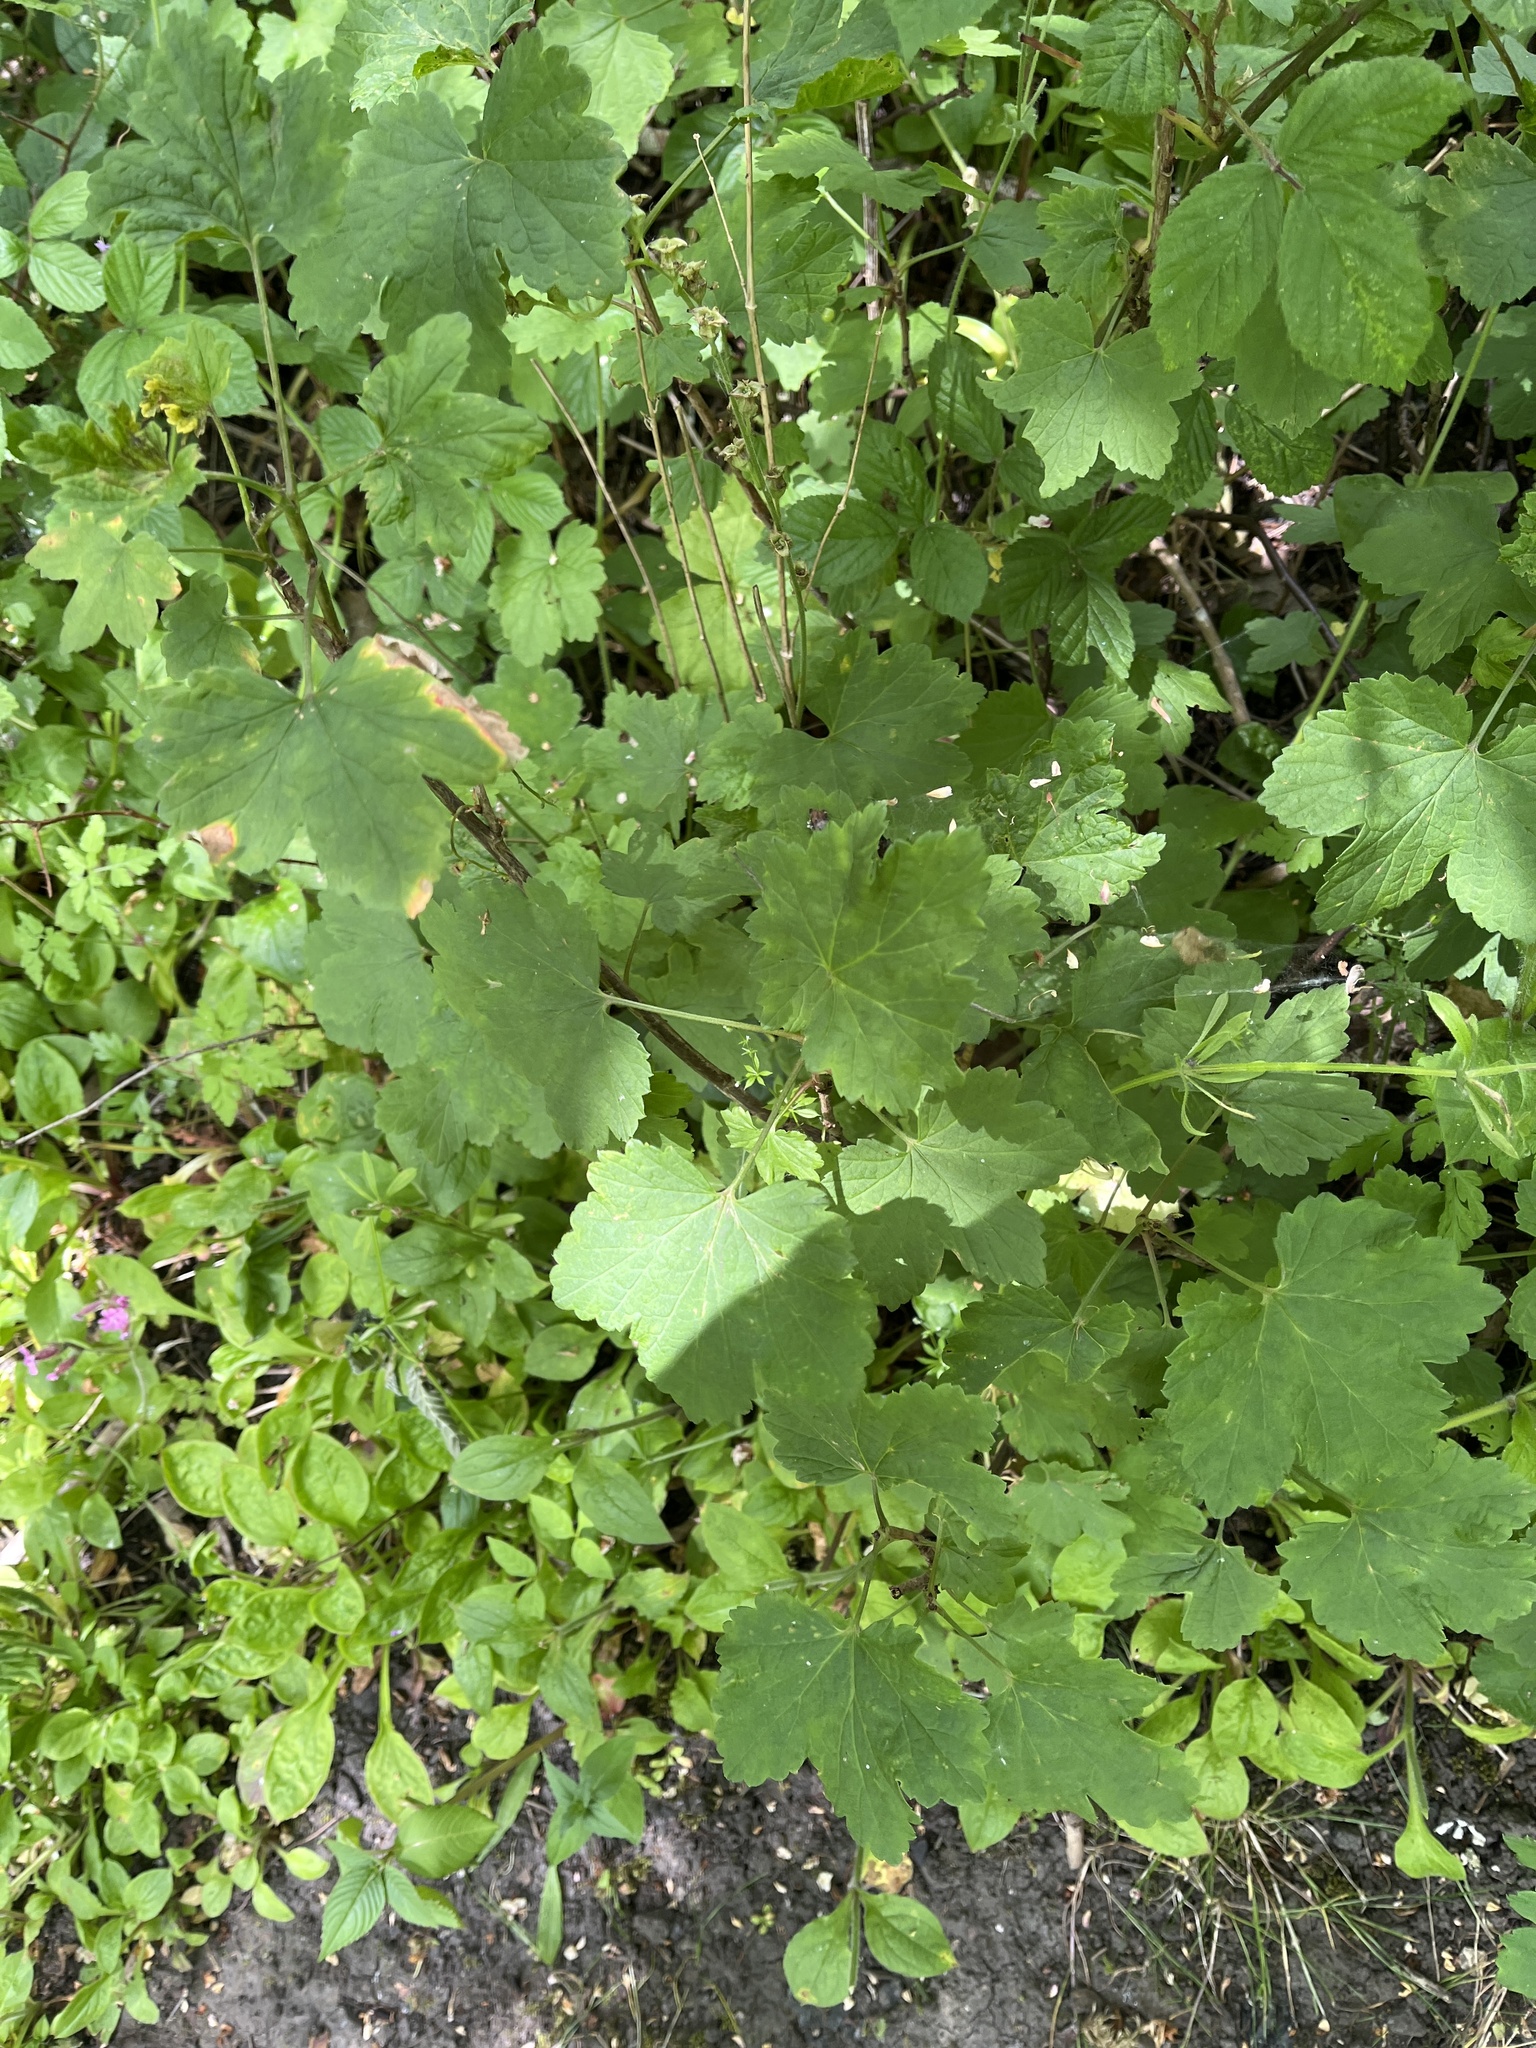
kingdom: Plantae
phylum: Tracheophyta
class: Magnoliopsida
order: Saxifragales
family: Grossulariaceae
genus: Ribes
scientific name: Ribes rubrum
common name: Red currant
